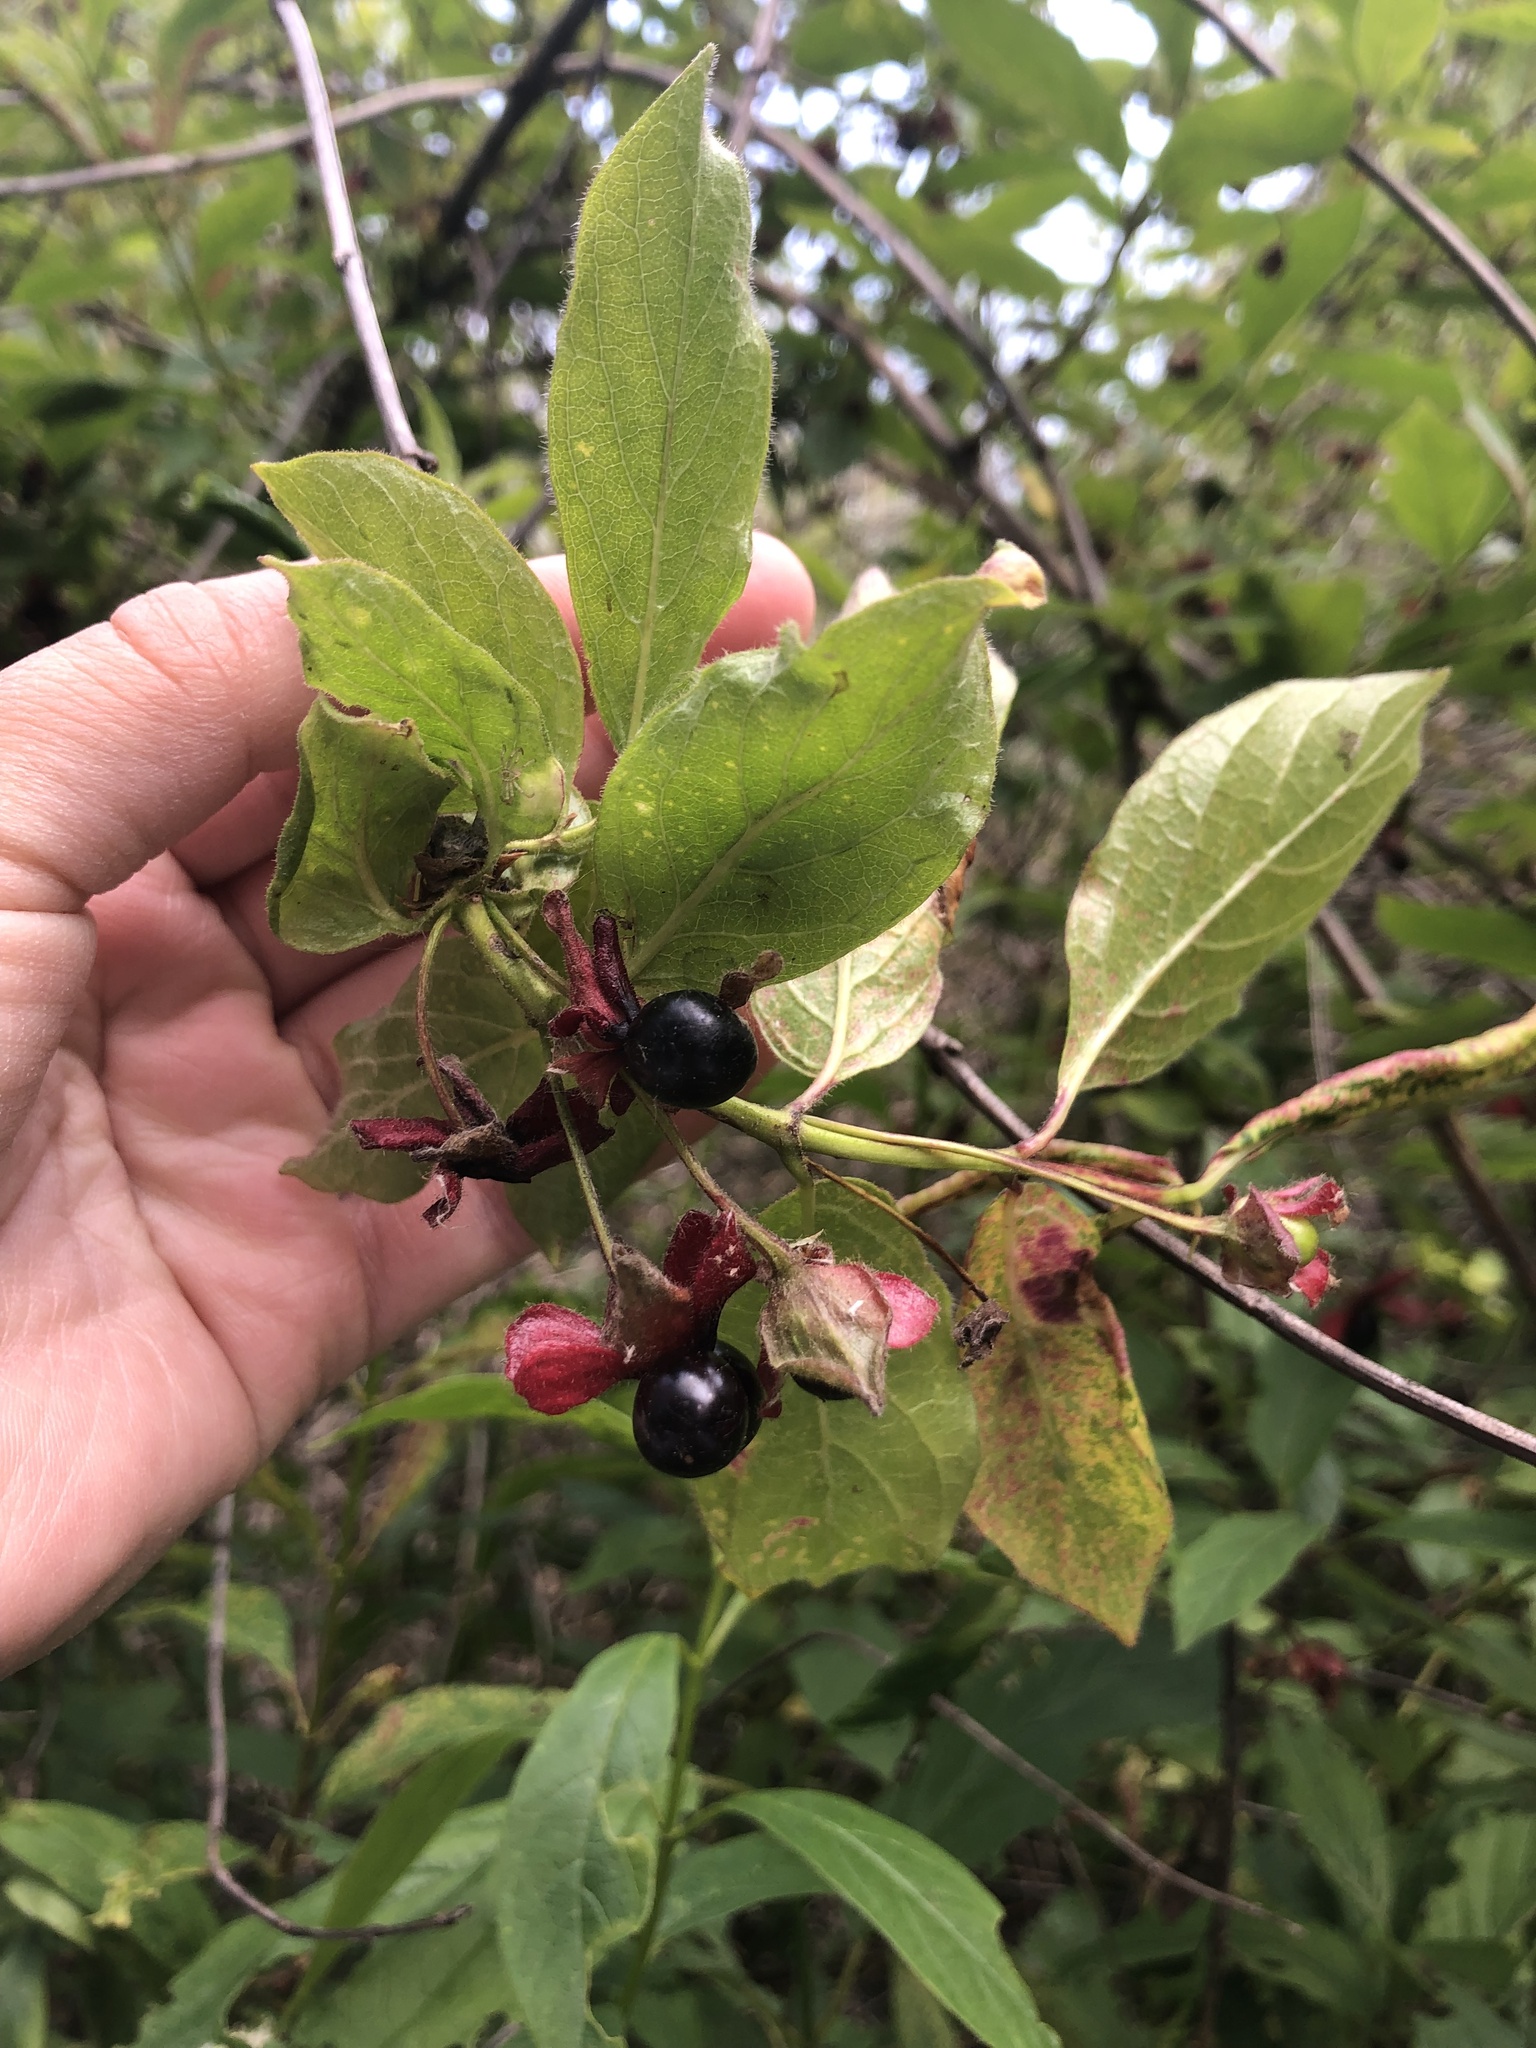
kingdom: Plantae
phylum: Tracheophyta
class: Magnoliopsida
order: Dipsacales
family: Caprifoliaceae
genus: Lonicera
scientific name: Lonicera involucrata
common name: Californian honeysuckle
